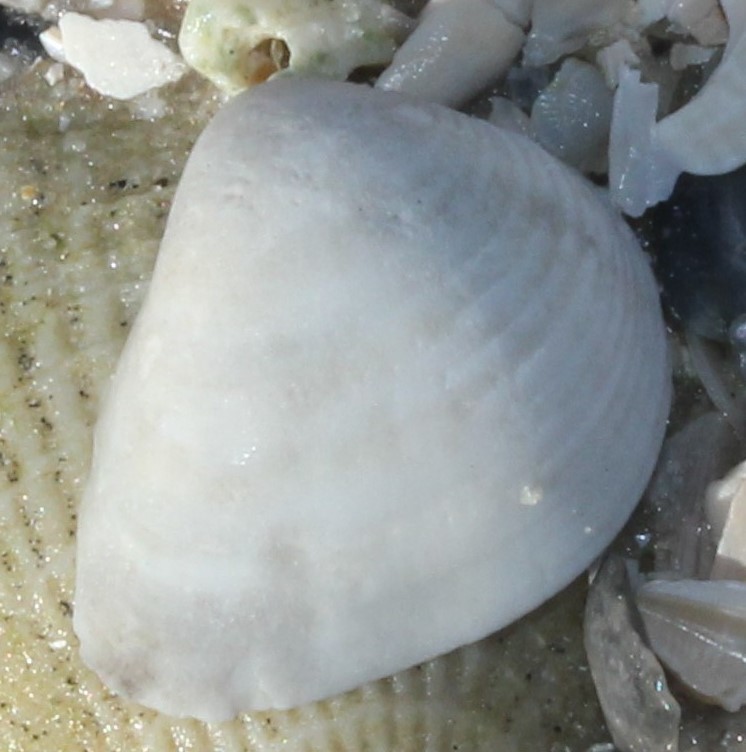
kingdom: Animalia
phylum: Mollusca
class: Bivalvia
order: Venerida
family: Veneridae
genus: Anomalocardia
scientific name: Anomalocardia
